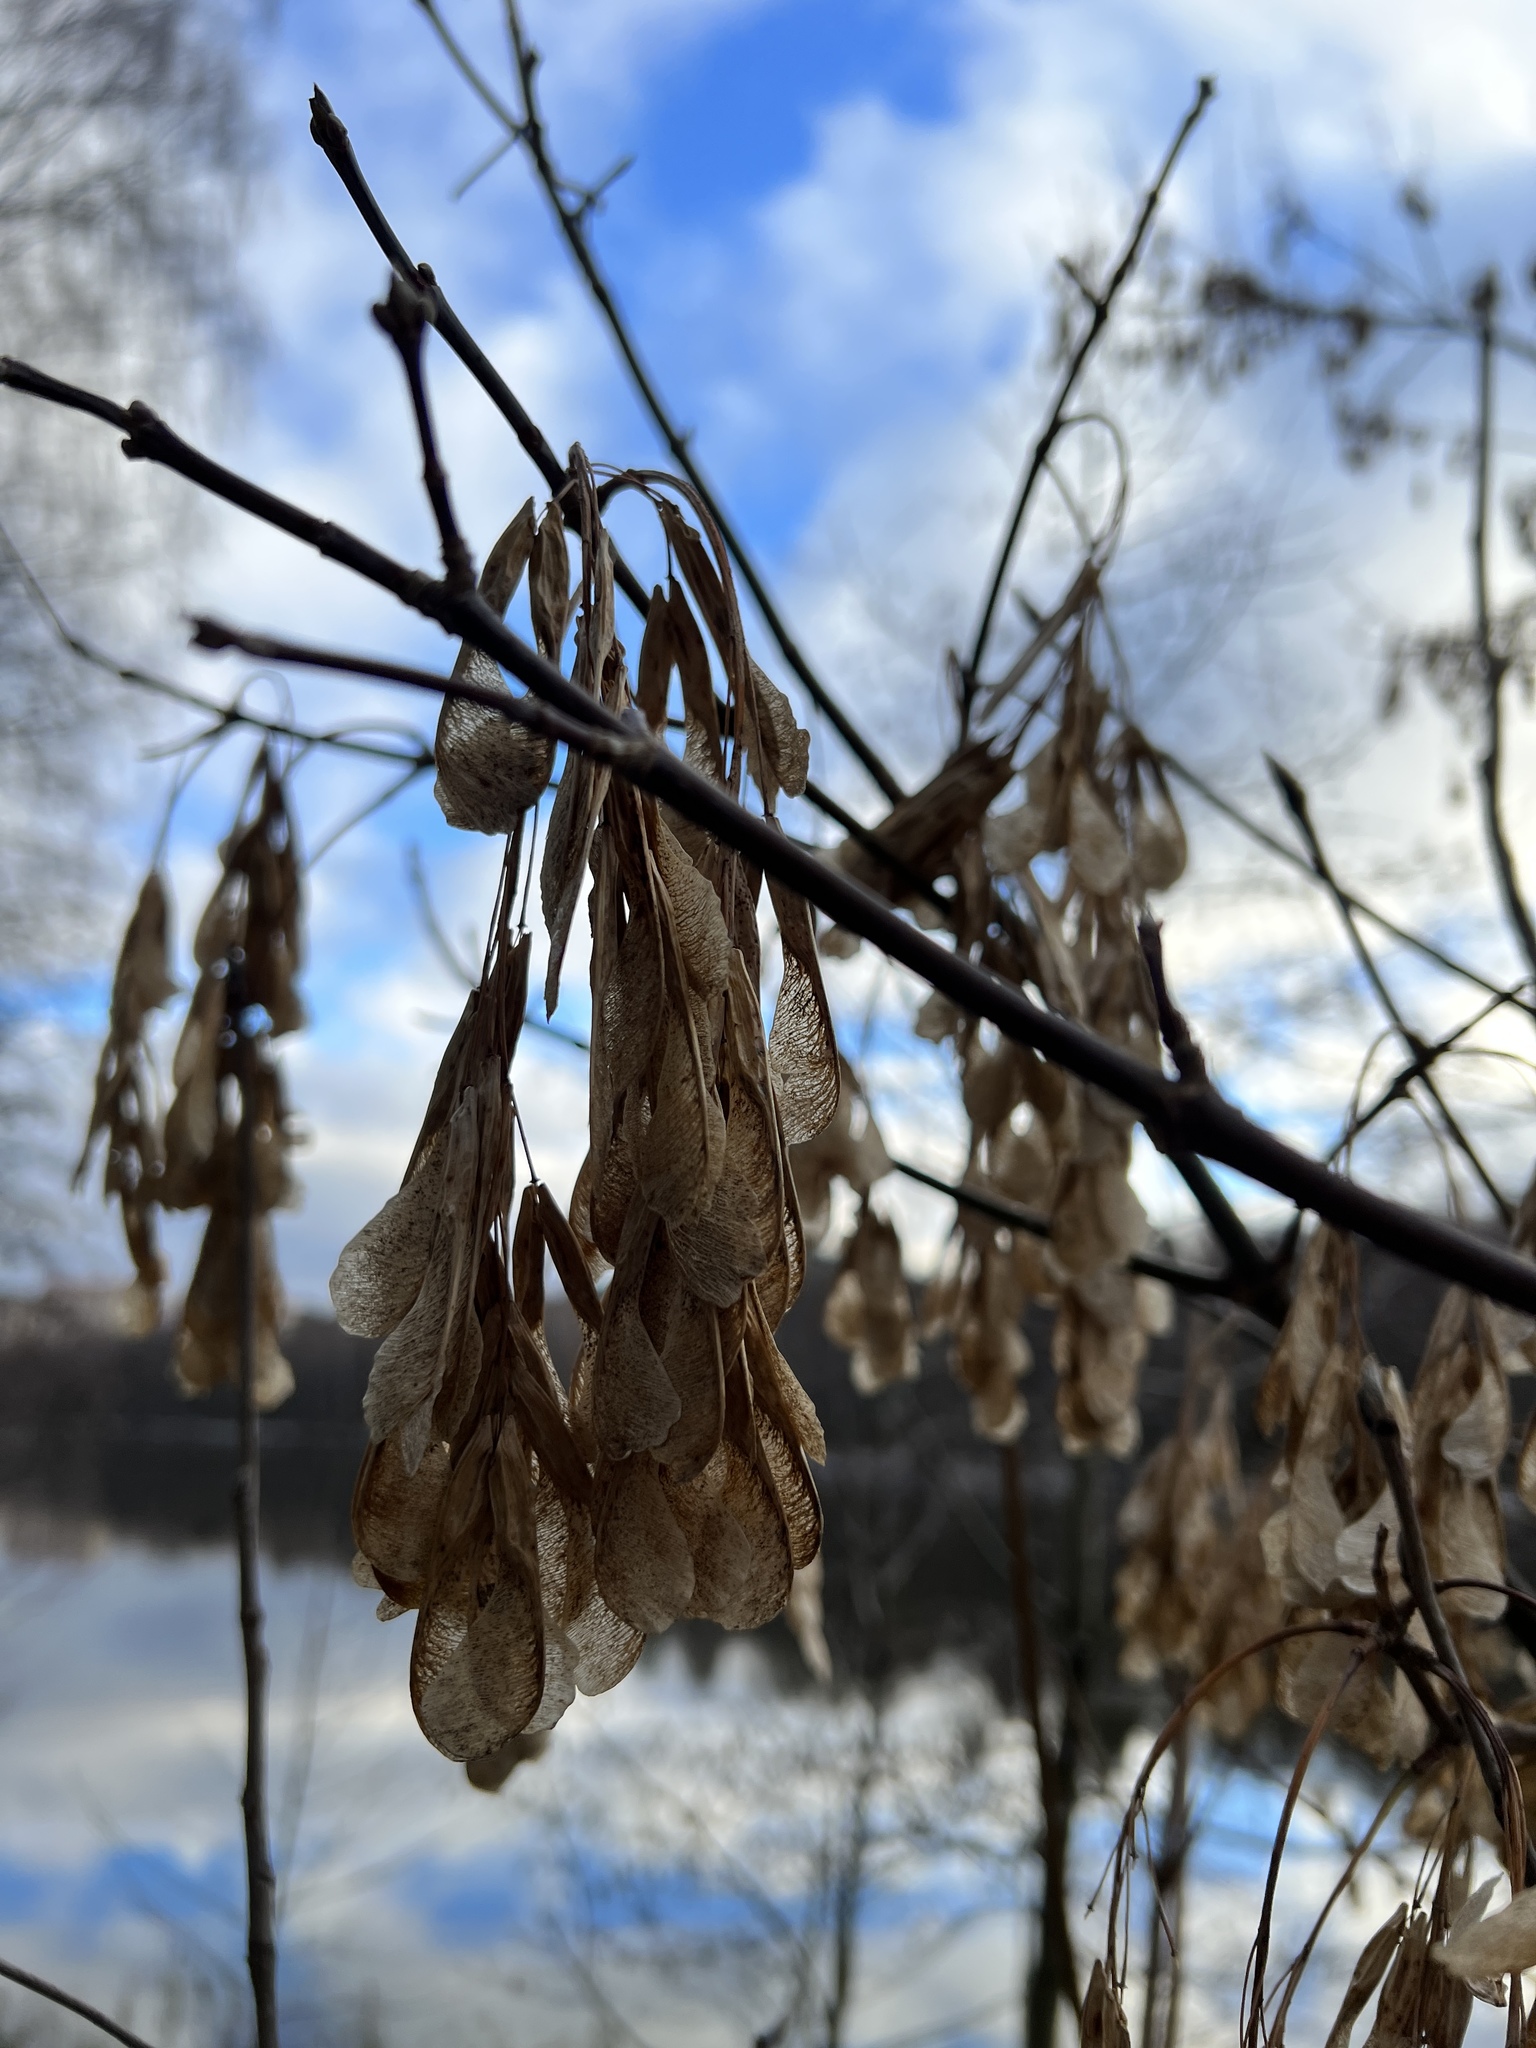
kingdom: Plantae
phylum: Tracheophyta
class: Magnoliopsida
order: Sapindales
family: Sapindaceae
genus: Acer
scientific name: Acer negundo
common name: Ashleaf maple
